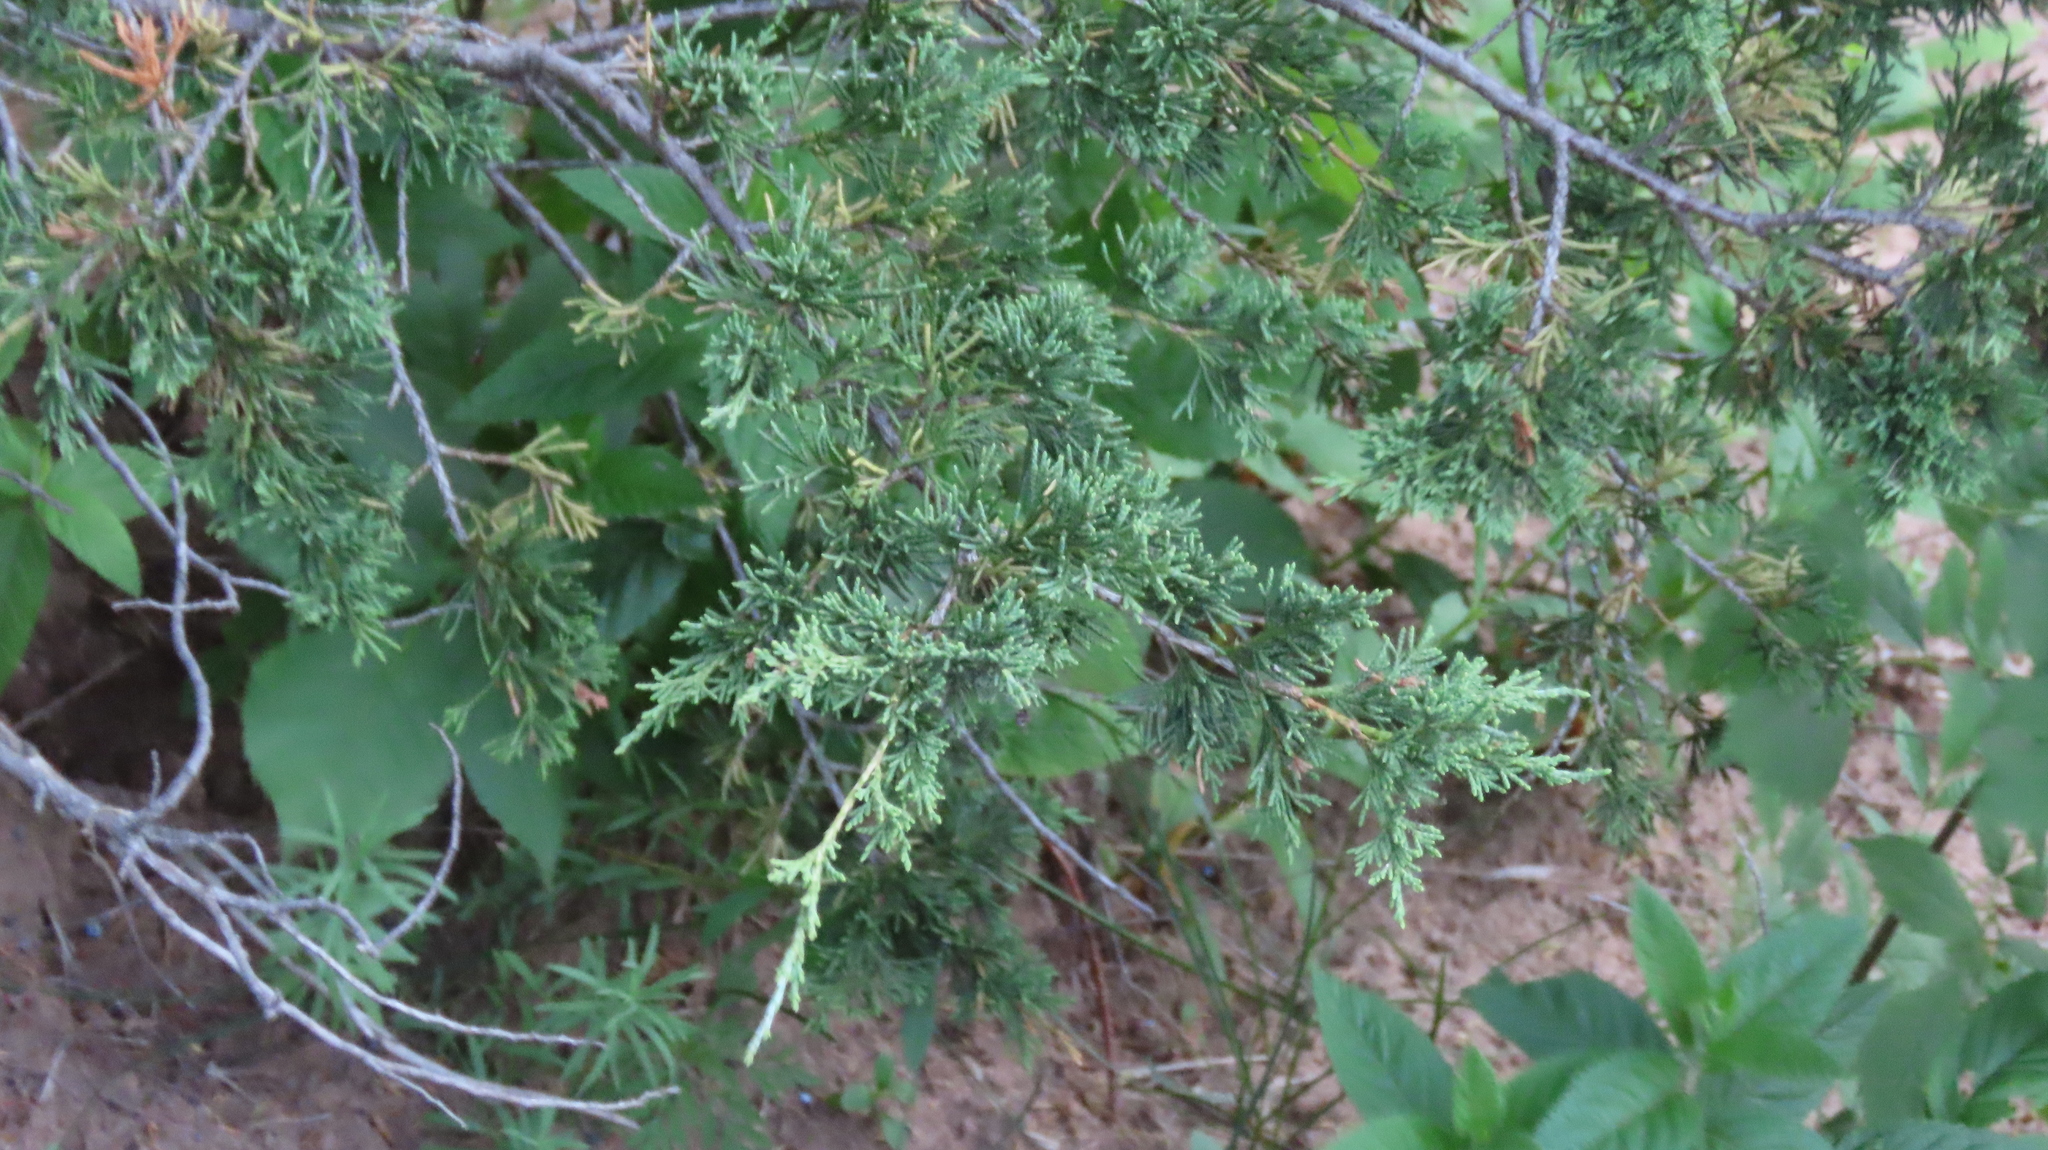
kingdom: Plantae
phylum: Tracheophyta
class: Pinopsida
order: Pinales
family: Cupressaceae
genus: Juniperus
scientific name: Juniperus virginiana
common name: Red juniper
